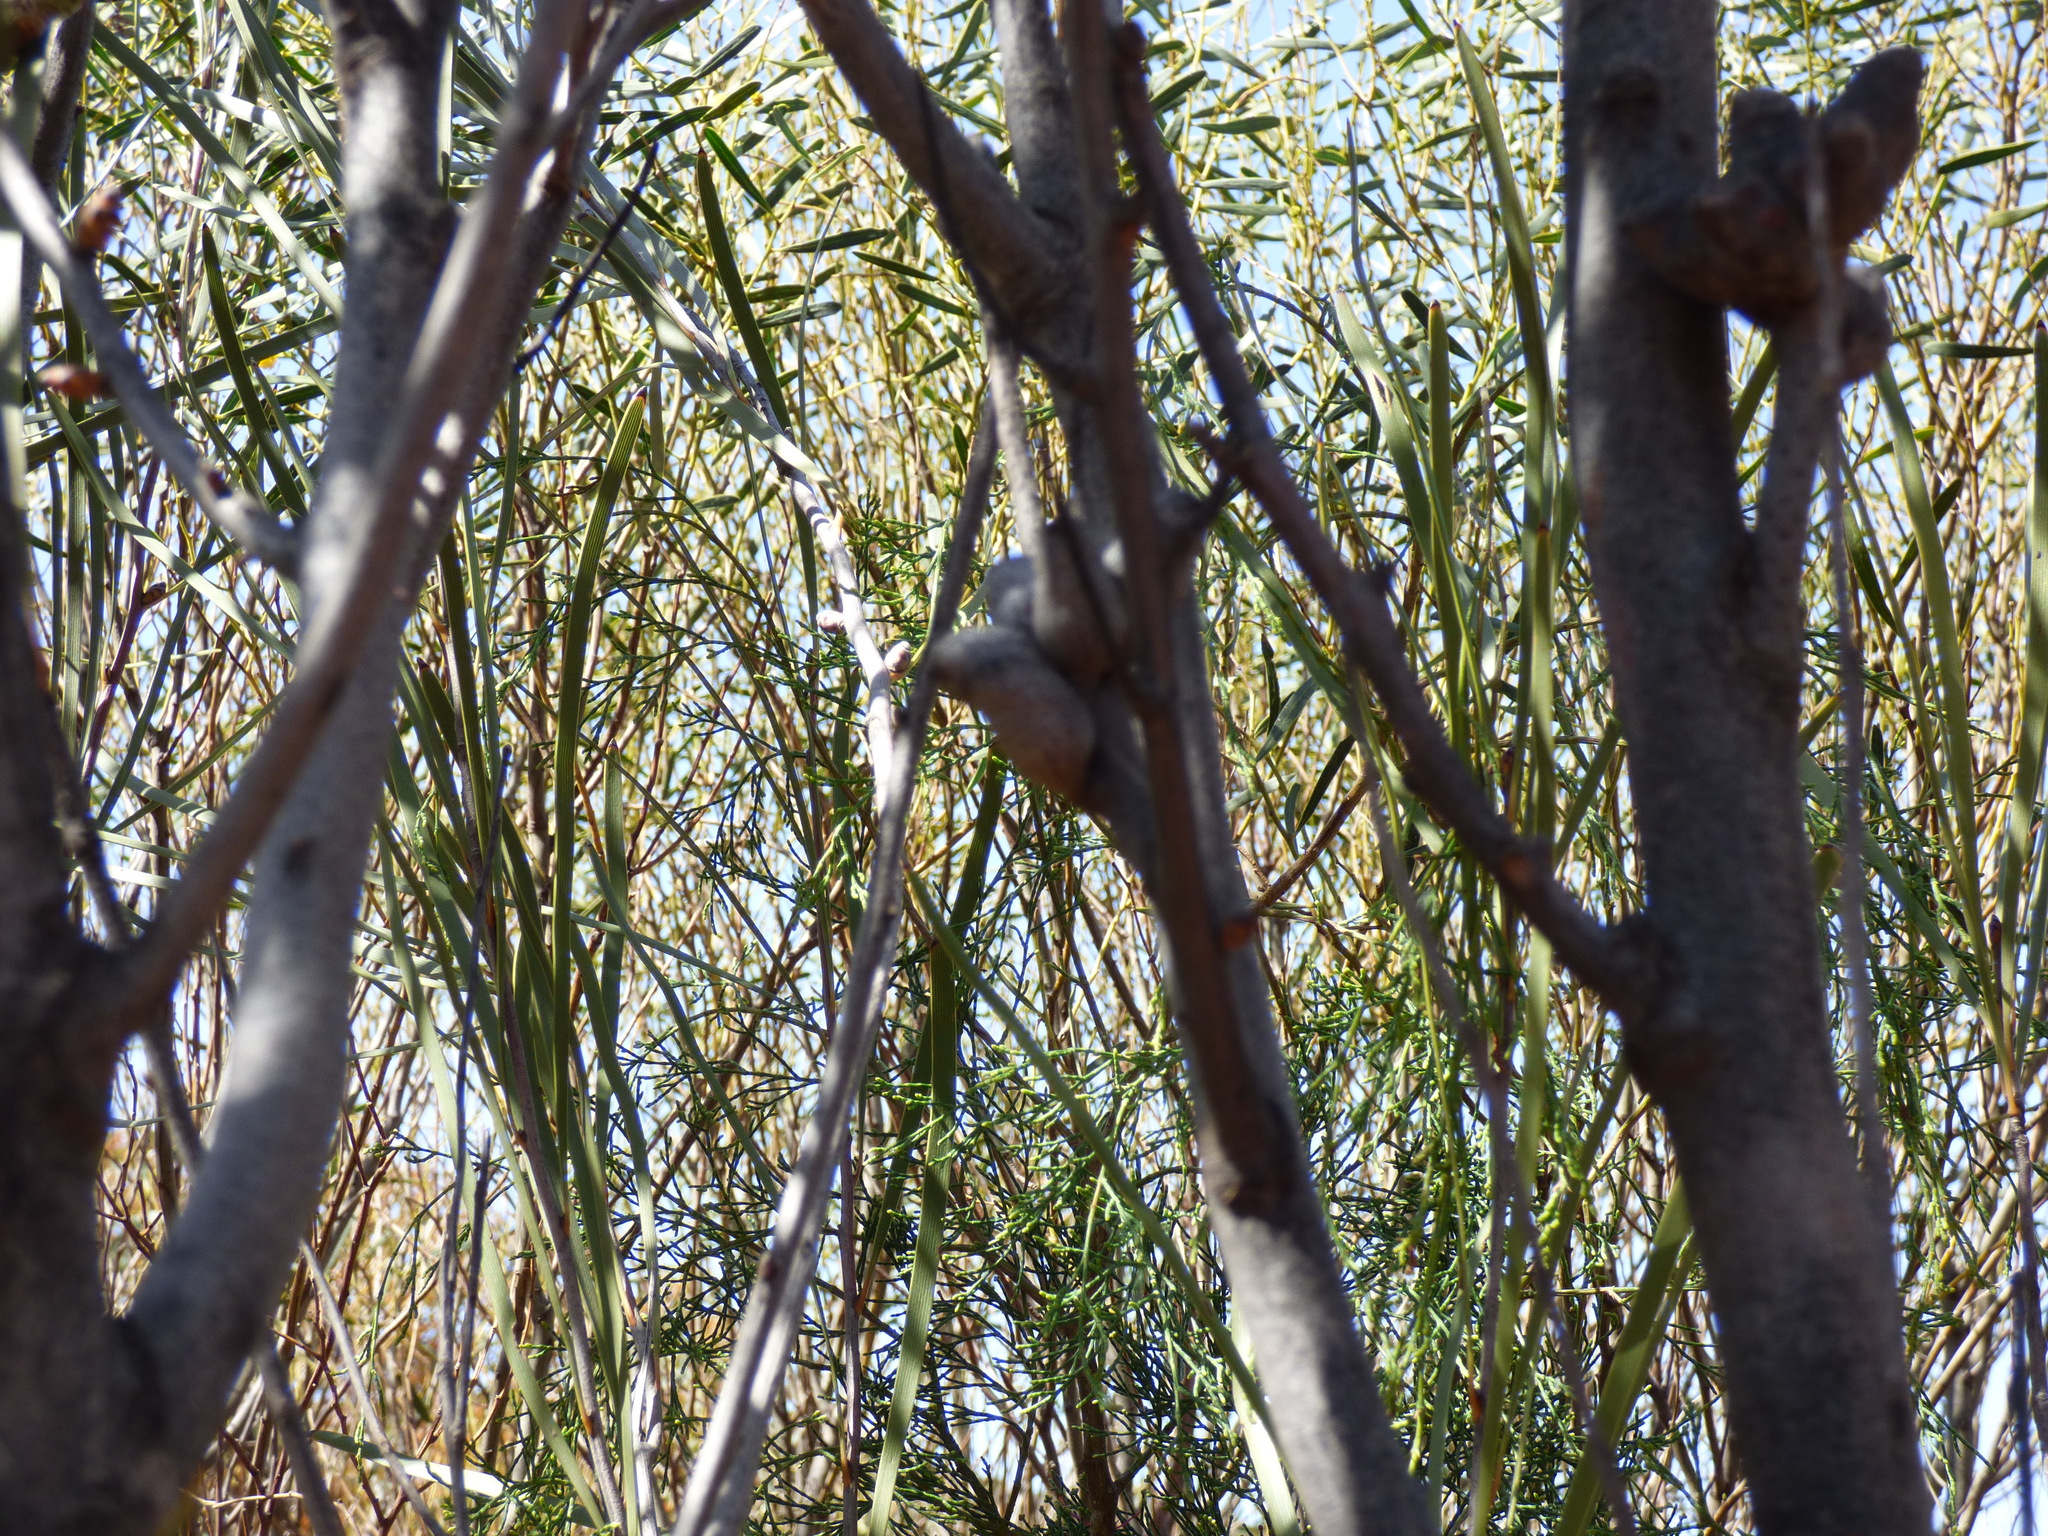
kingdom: Plantae
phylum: Tracheophyta
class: Magnoliopsida
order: Proteales
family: Proteaceae
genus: Hakea
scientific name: Hakea francisiana
